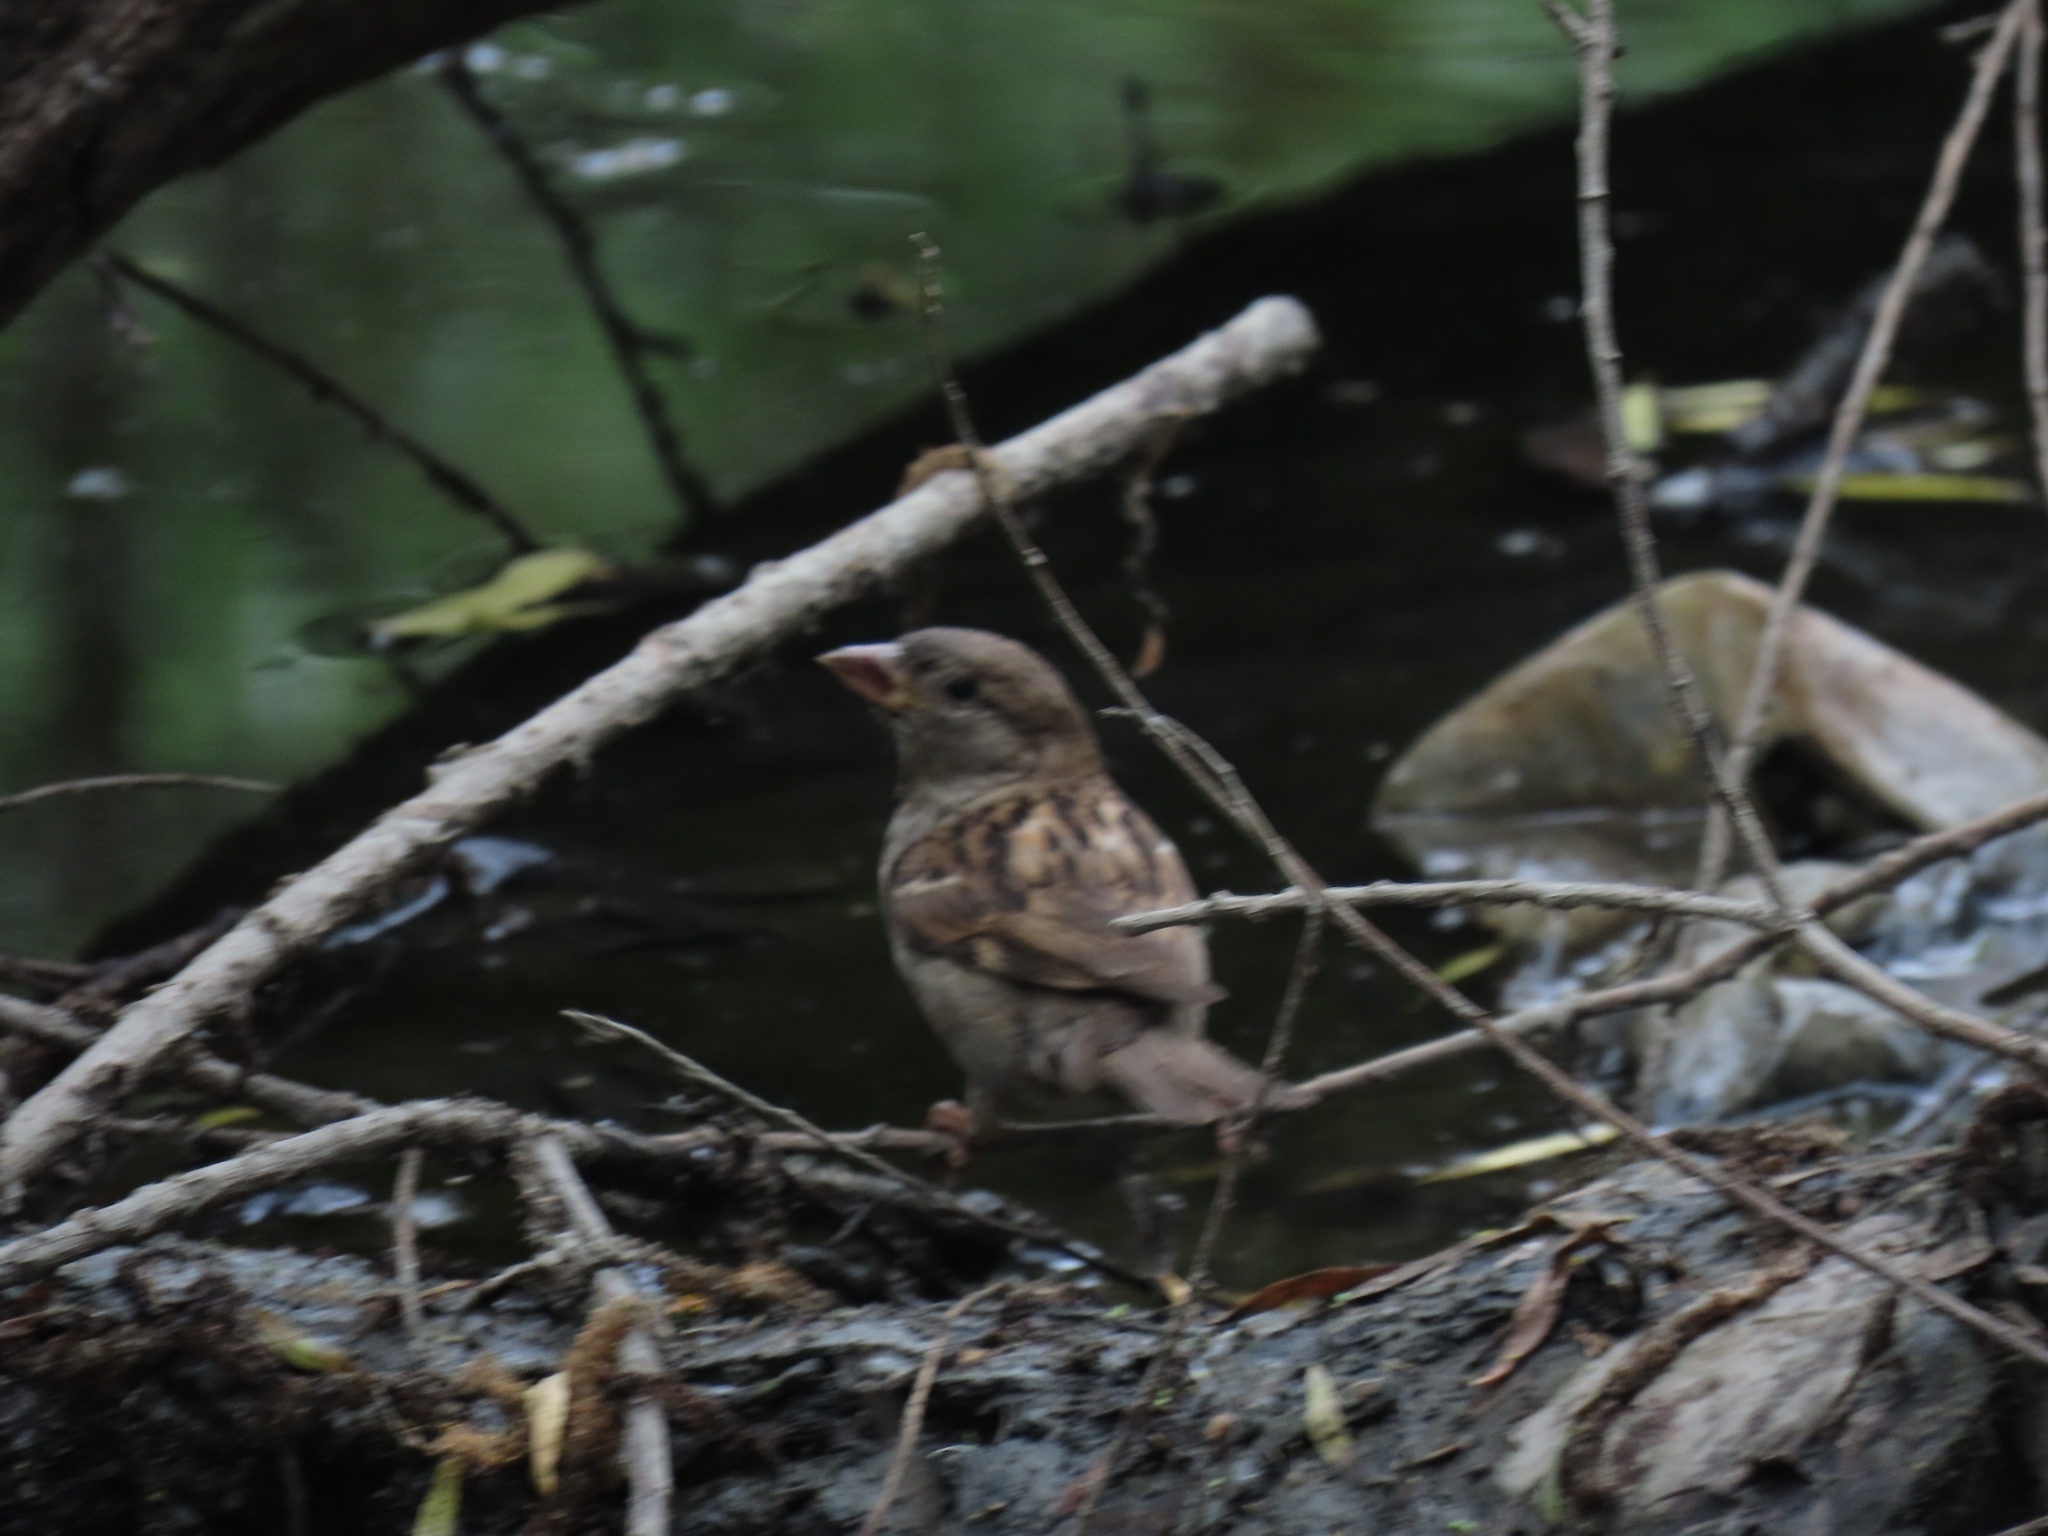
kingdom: Animalia
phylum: Chordata
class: Aves
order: Passeriformes
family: Passeridae
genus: Passer
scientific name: Passer domesticus
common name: House sparrow
